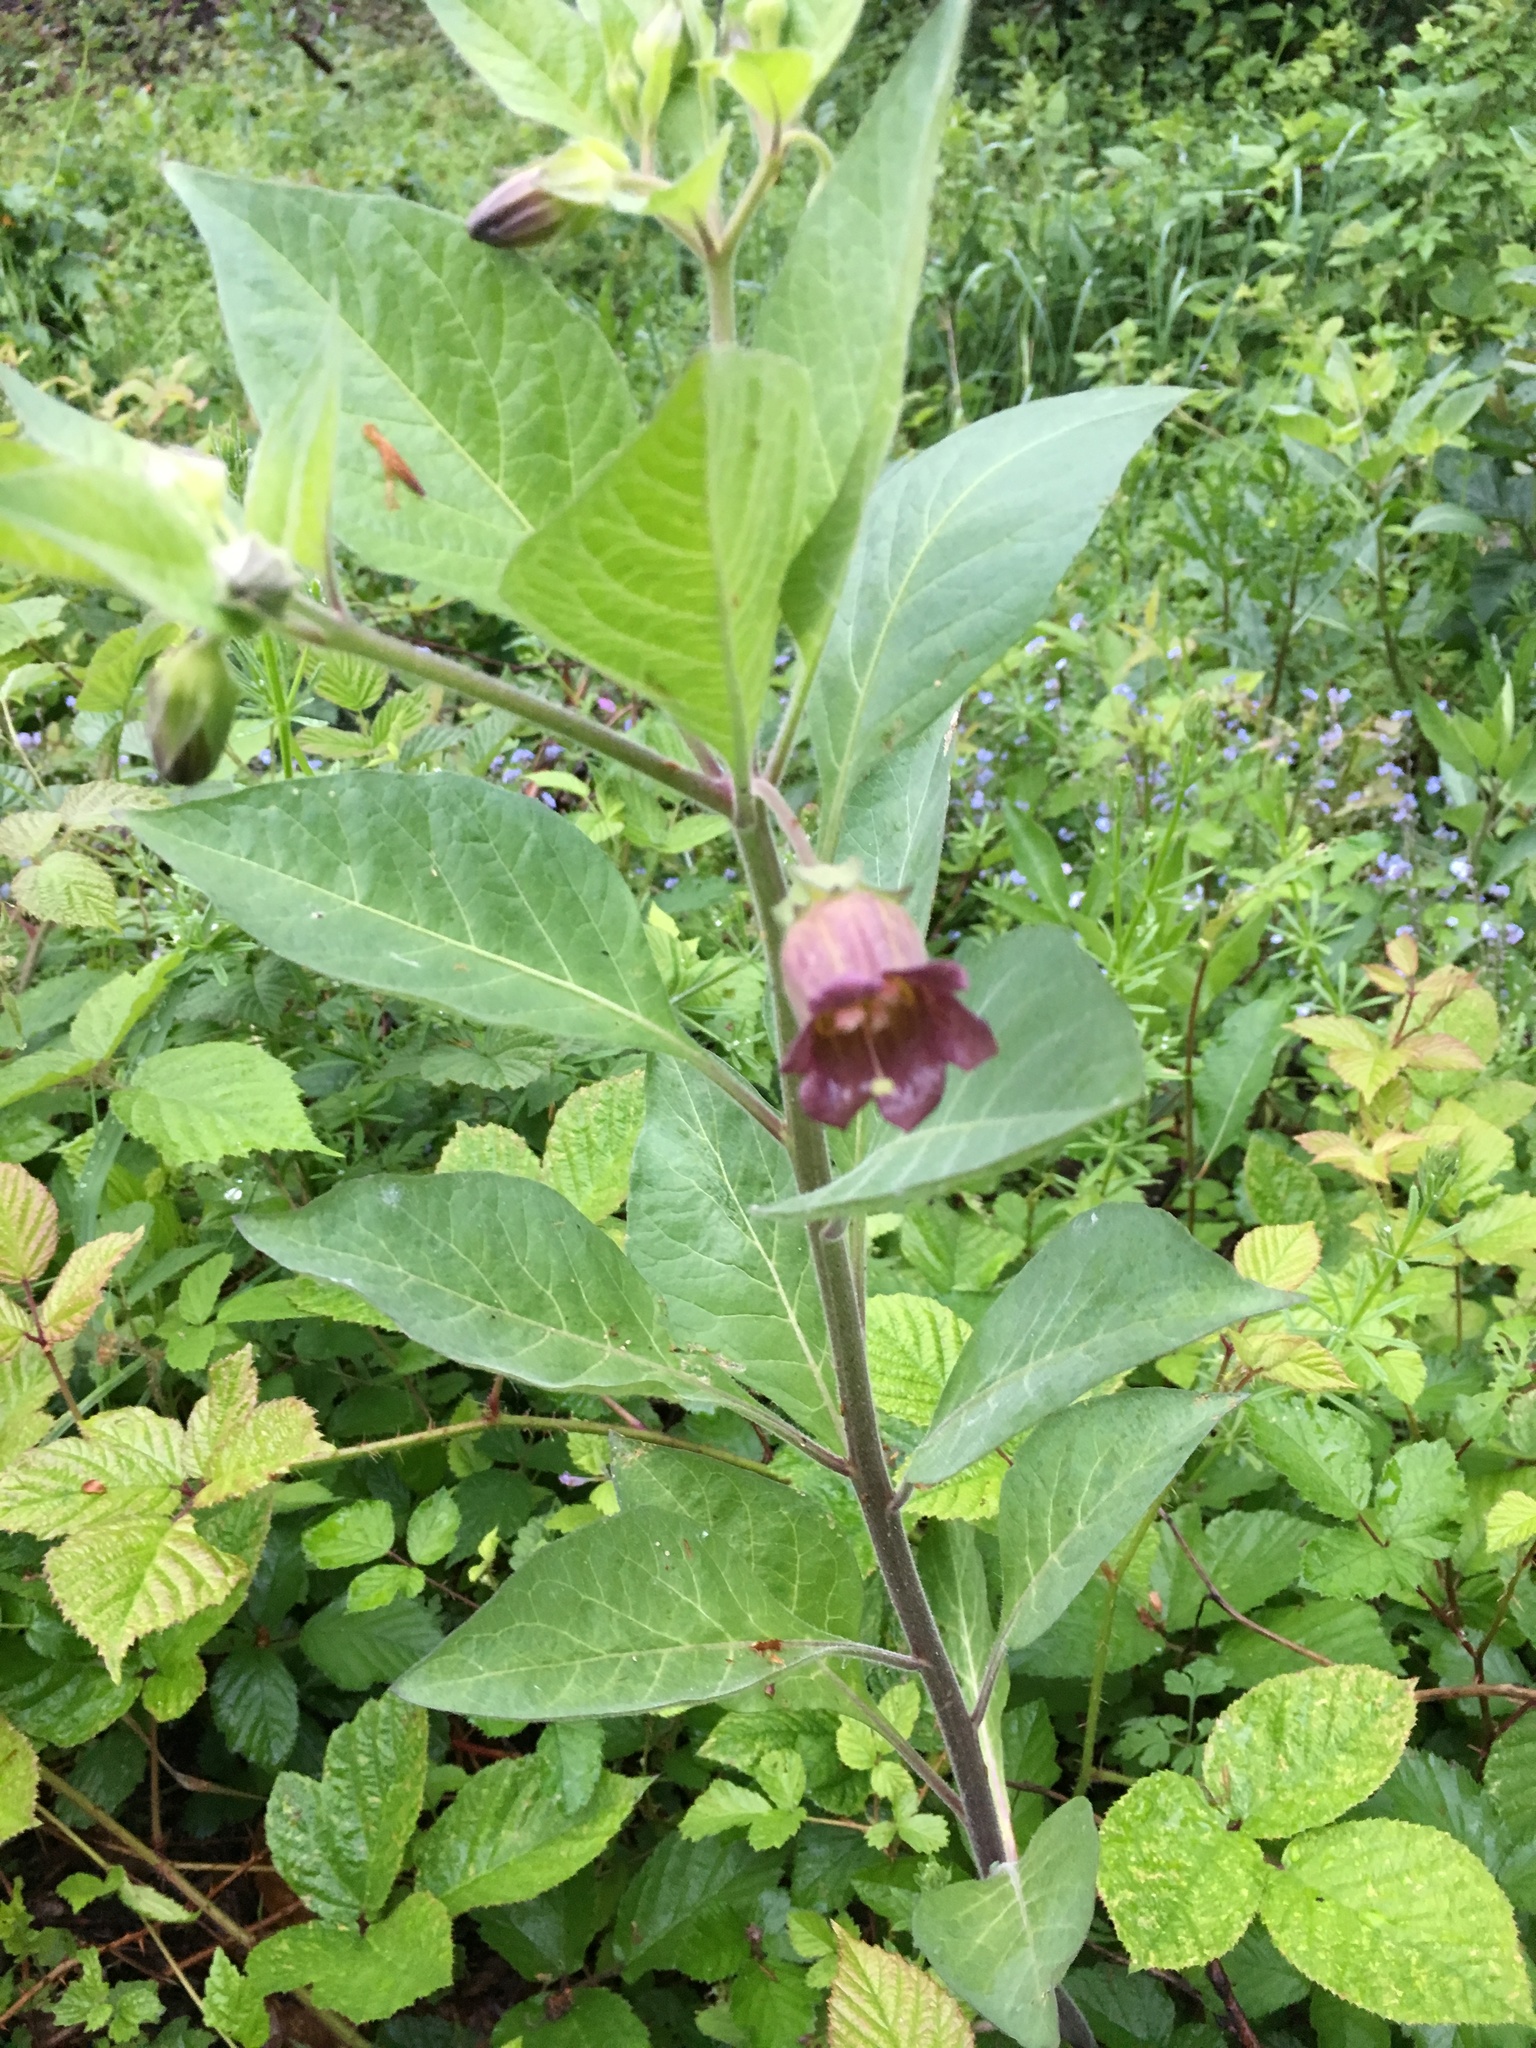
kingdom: Plantae
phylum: Tracheophyta
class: Magnoliopsida
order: Solanales
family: Solanaceae
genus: Atropa
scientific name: Atropa belladonna
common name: Deadly nightshade
